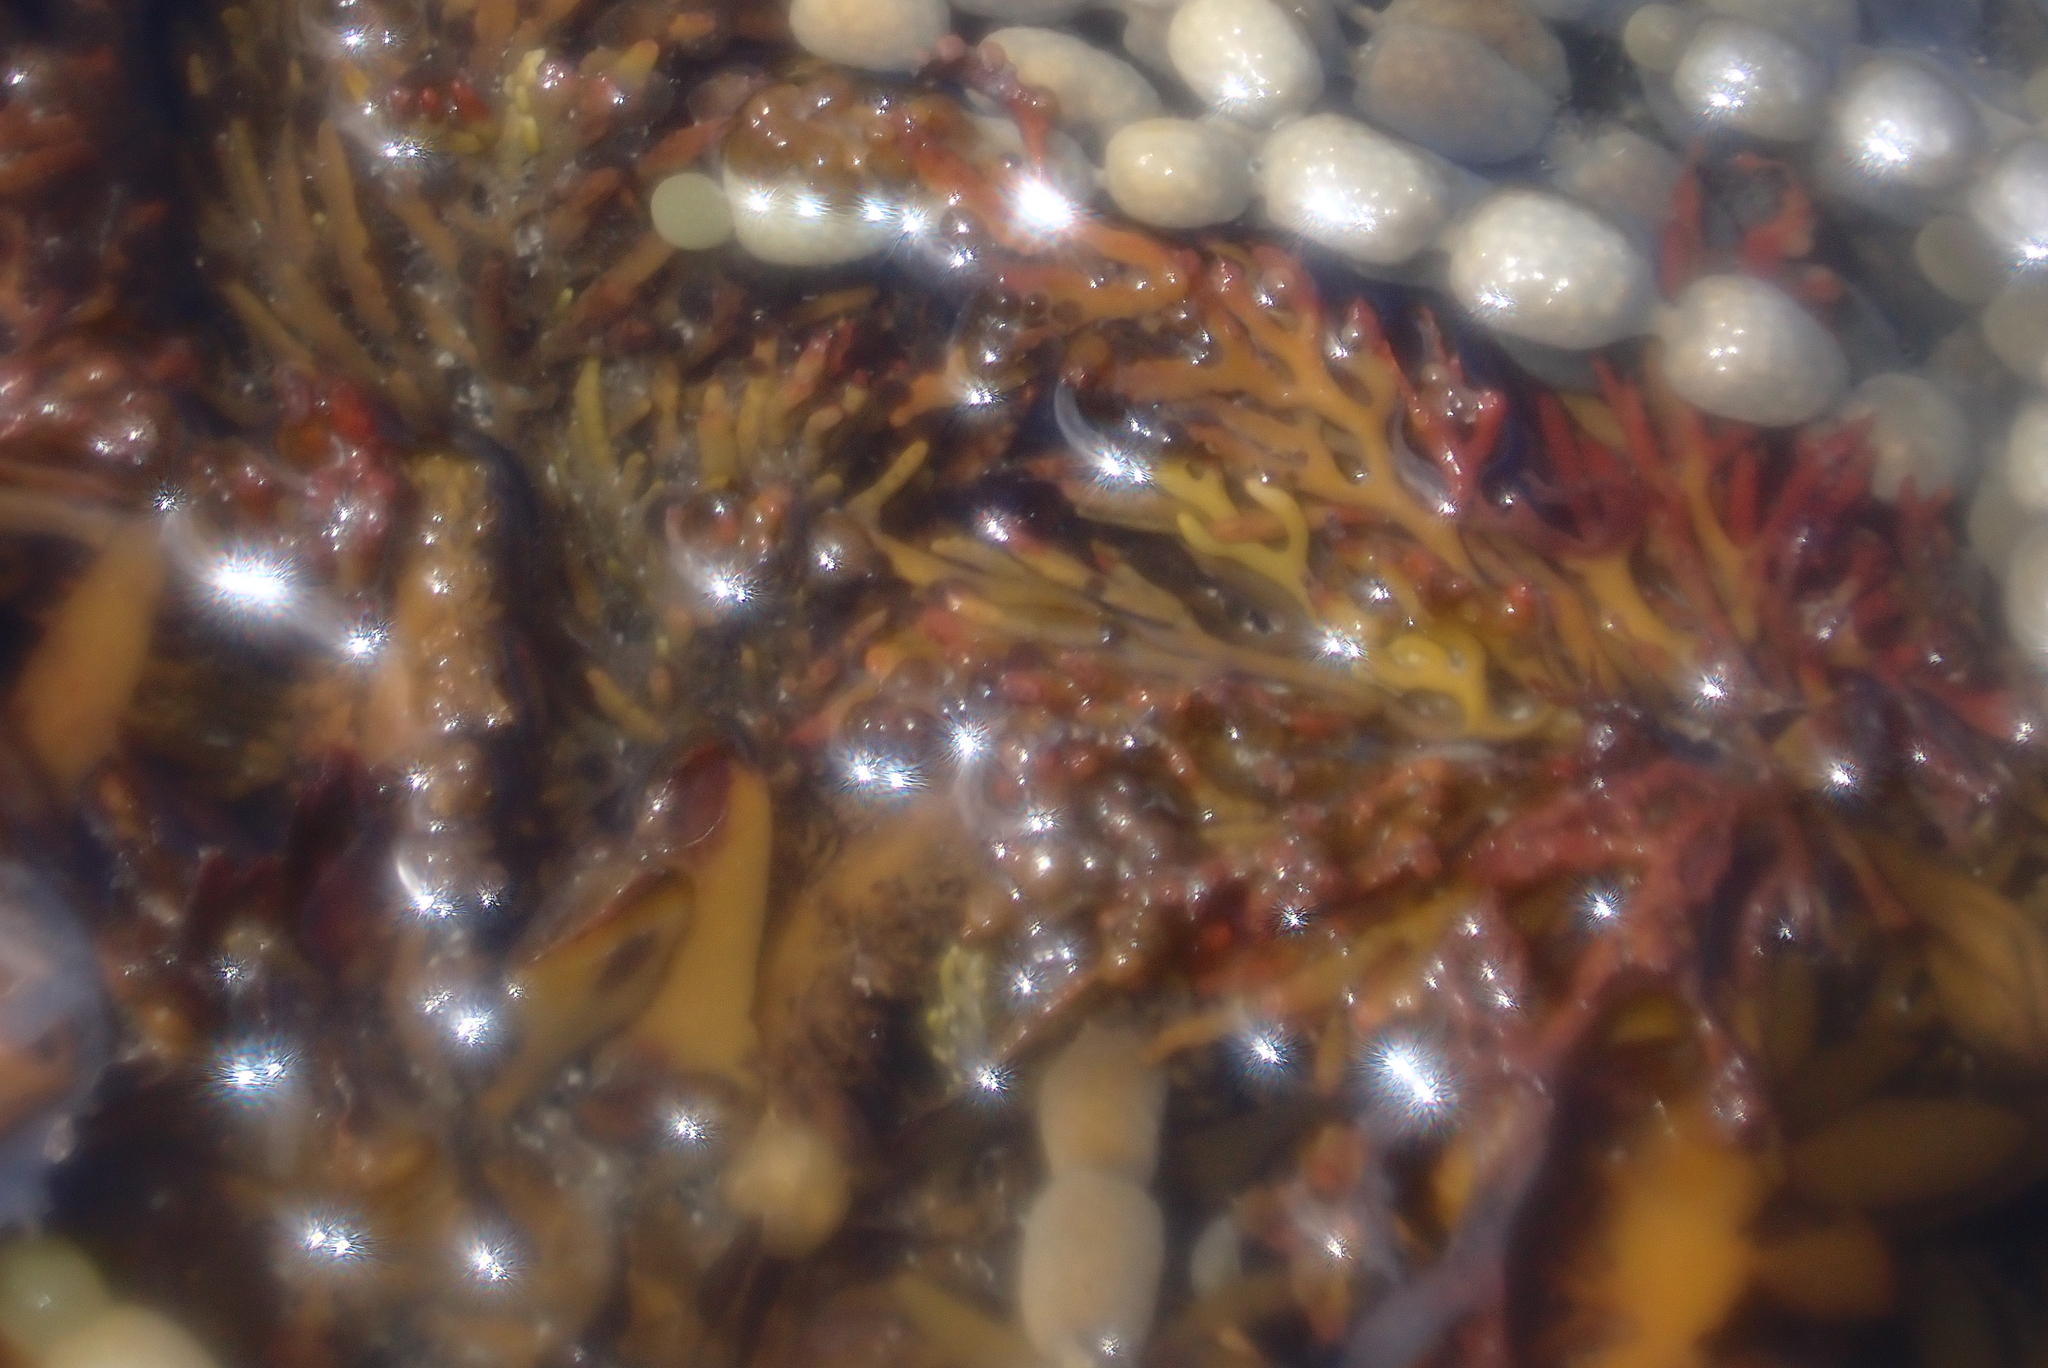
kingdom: Chromista
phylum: Ochrophyta
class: Phaeophyceae
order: Fucales
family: Sargassaceae
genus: Cystophora
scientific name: Cystophora scalaris
